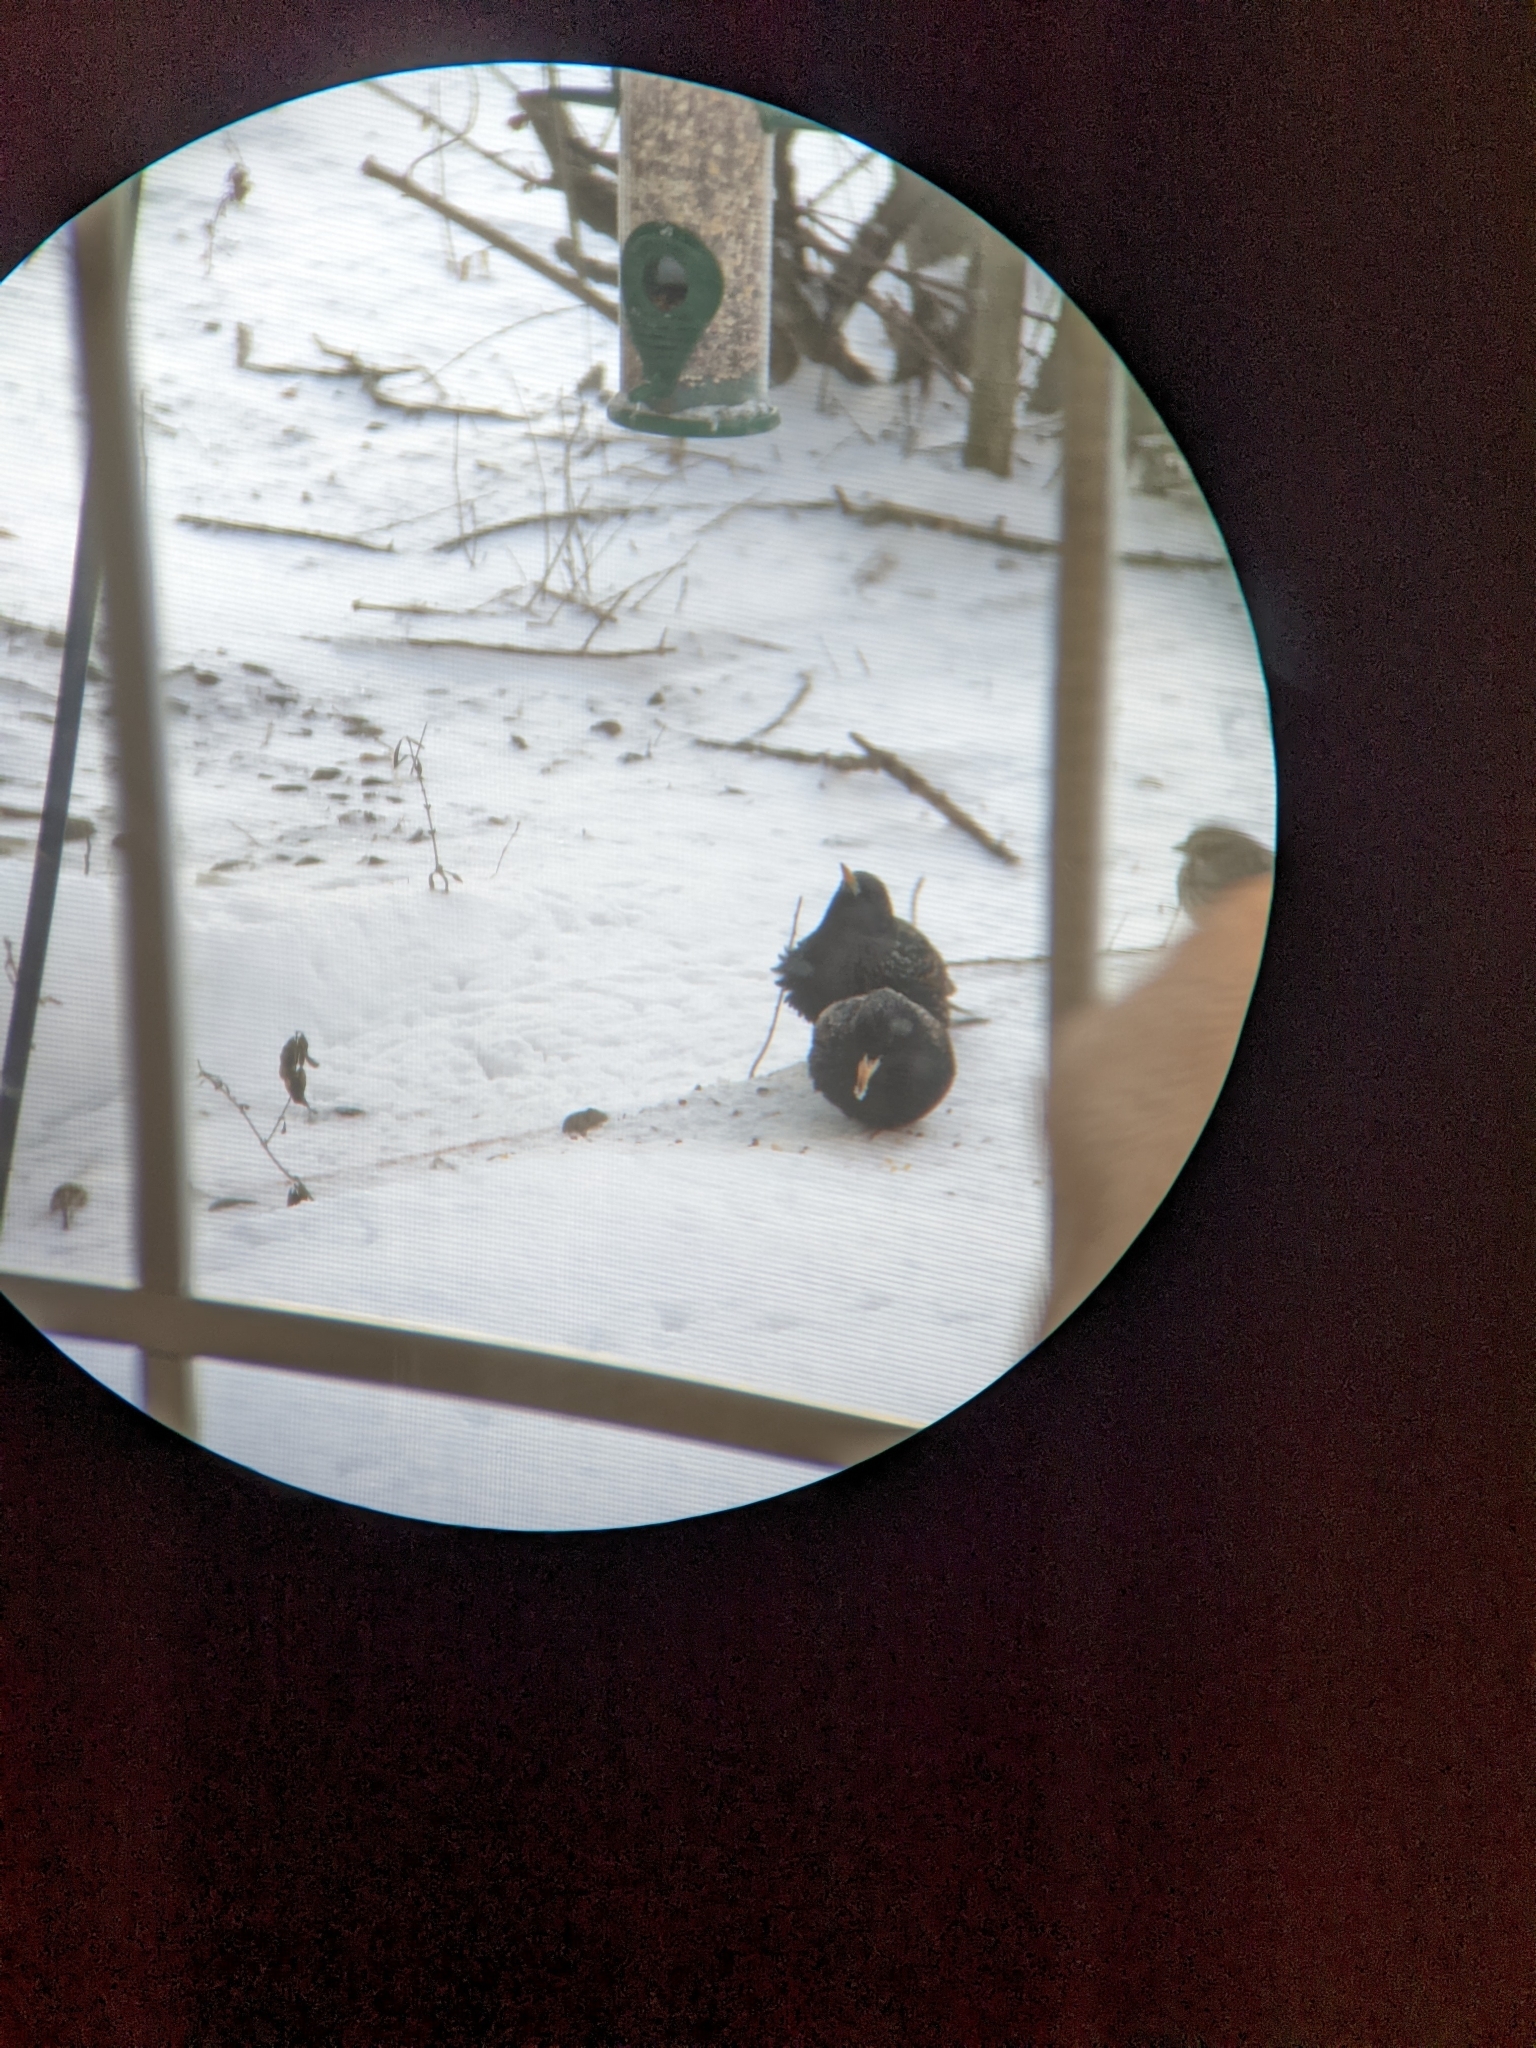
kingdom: Animalia
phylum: Chordata
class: Aves
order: Passeriformes
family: Sturnidae
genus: Sturnus
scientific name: Sturnus vulgaris
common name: Common starling
